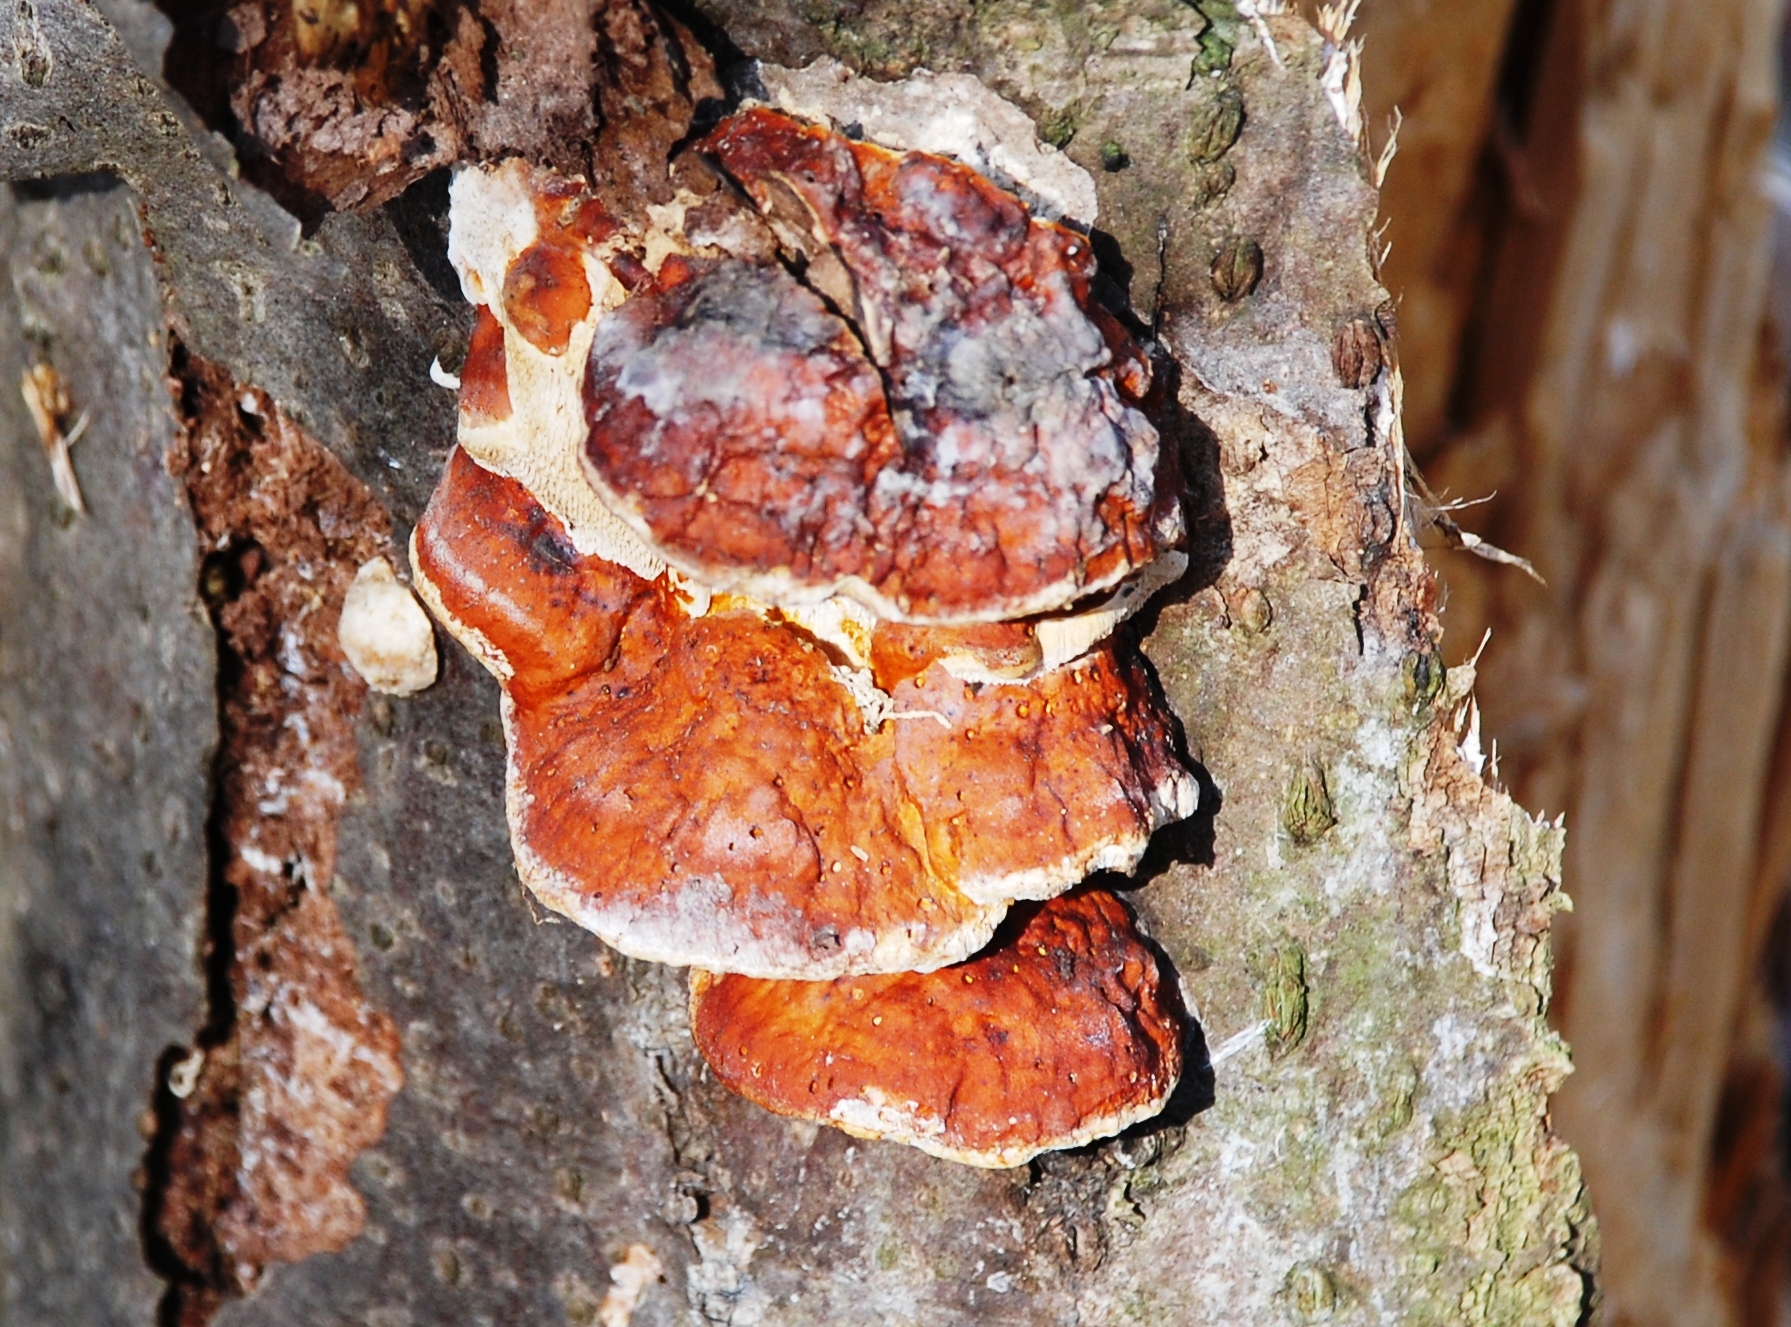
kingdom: Fungi
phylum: Basidiomycota
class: Agaricomycetes
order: Polyporales
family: Fomitopsidaceae
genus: Fomitopsis
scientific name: Fomitopsis pinicola
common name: Red-belted bracket
